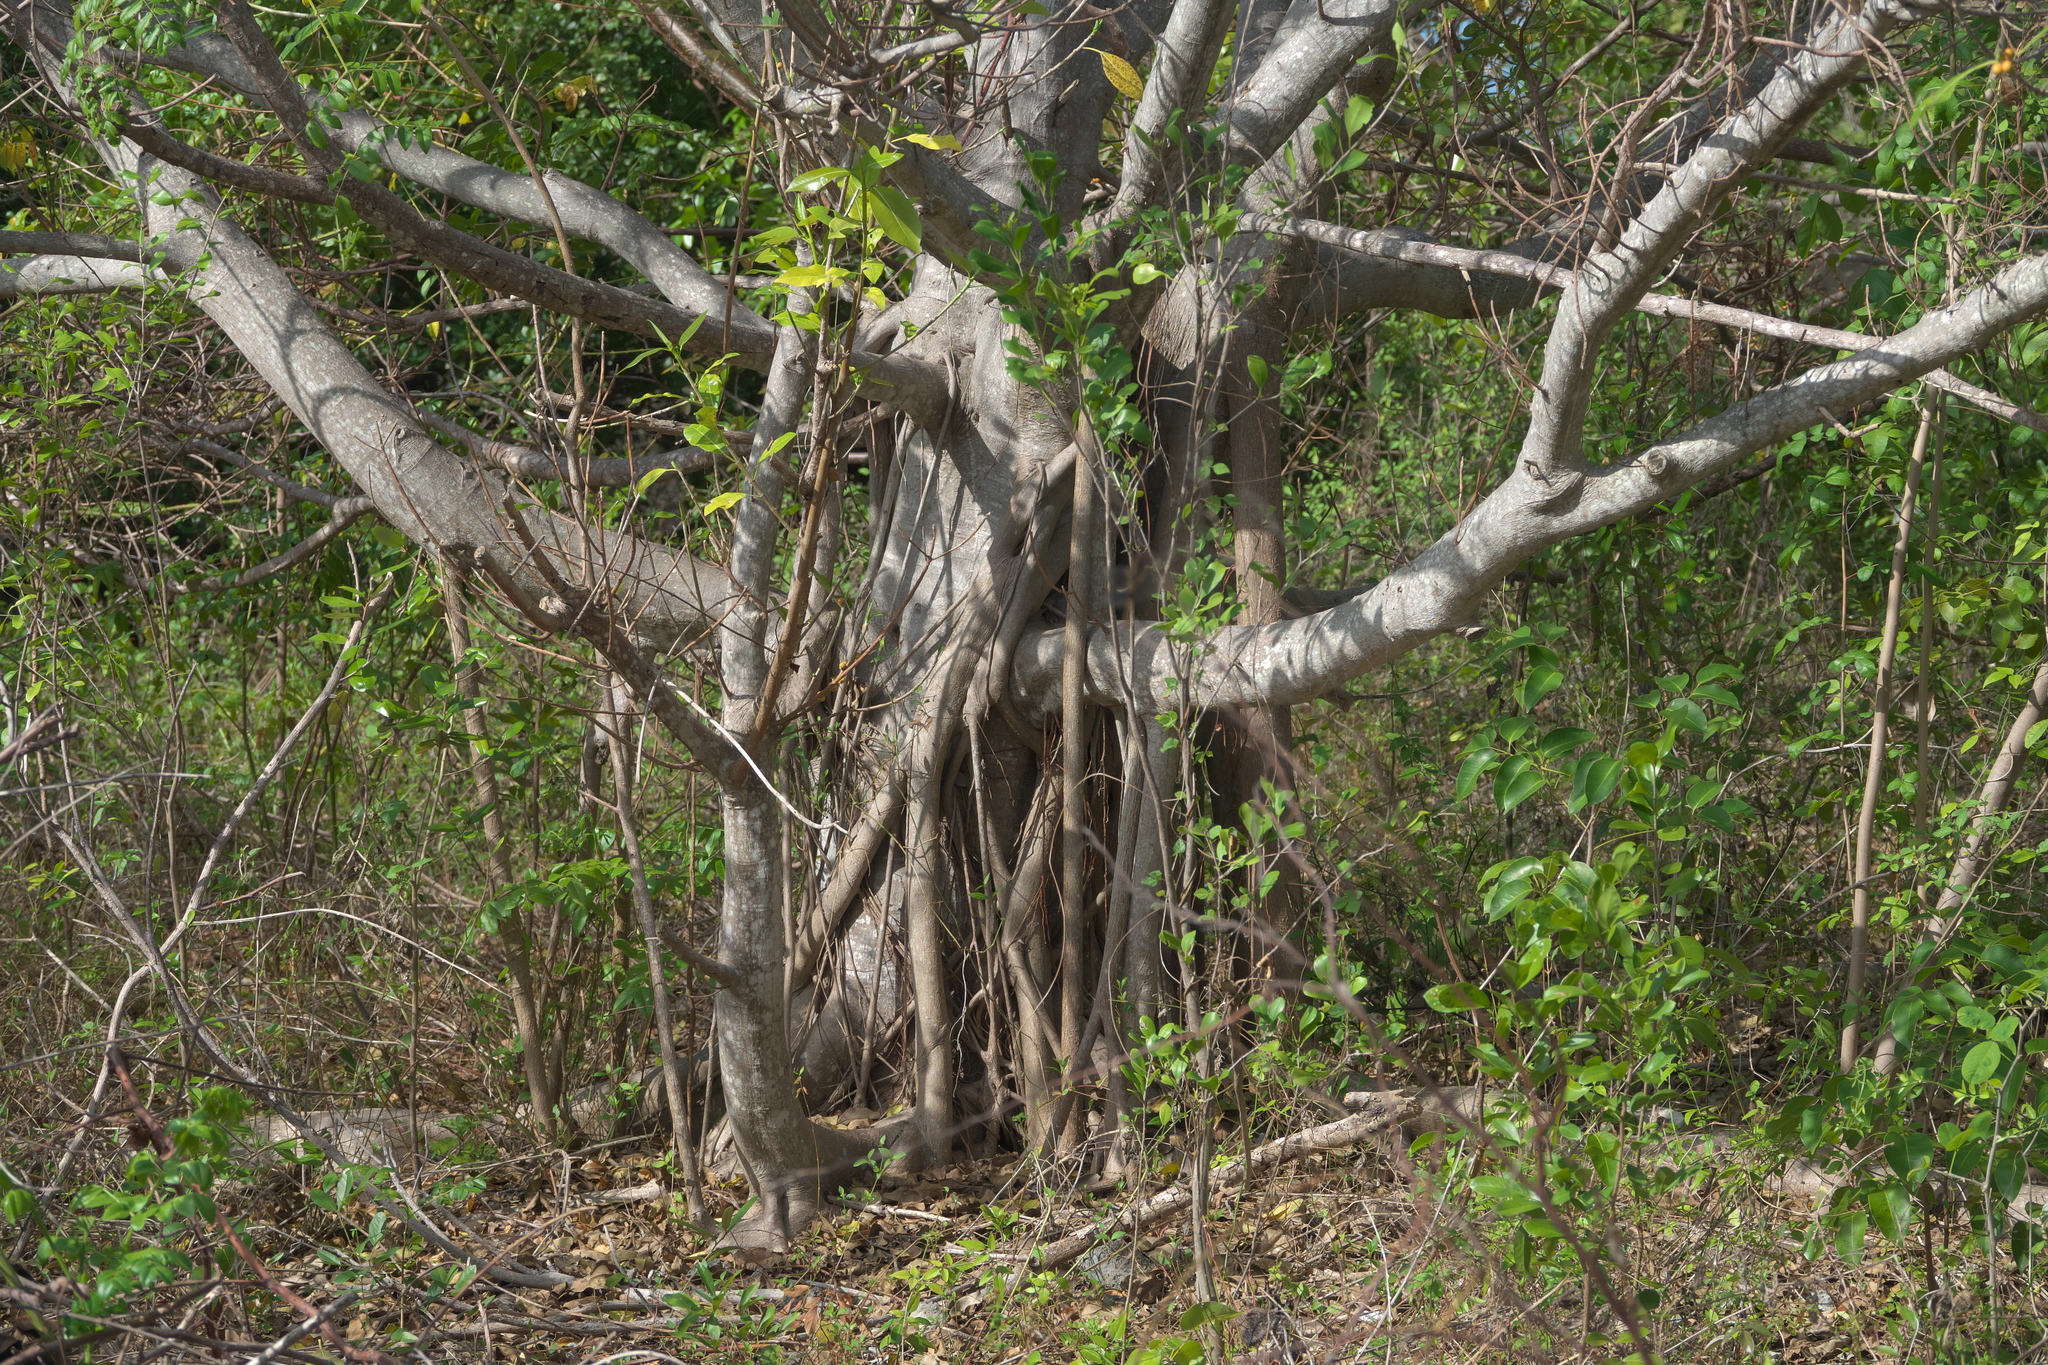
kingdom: Plantae
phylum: Tracheophyta
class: Magnoliopsida
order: Caryophyllales
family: Nyctaginaceae
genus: Guapira
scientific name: Guapira discolor
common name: Beeftree
